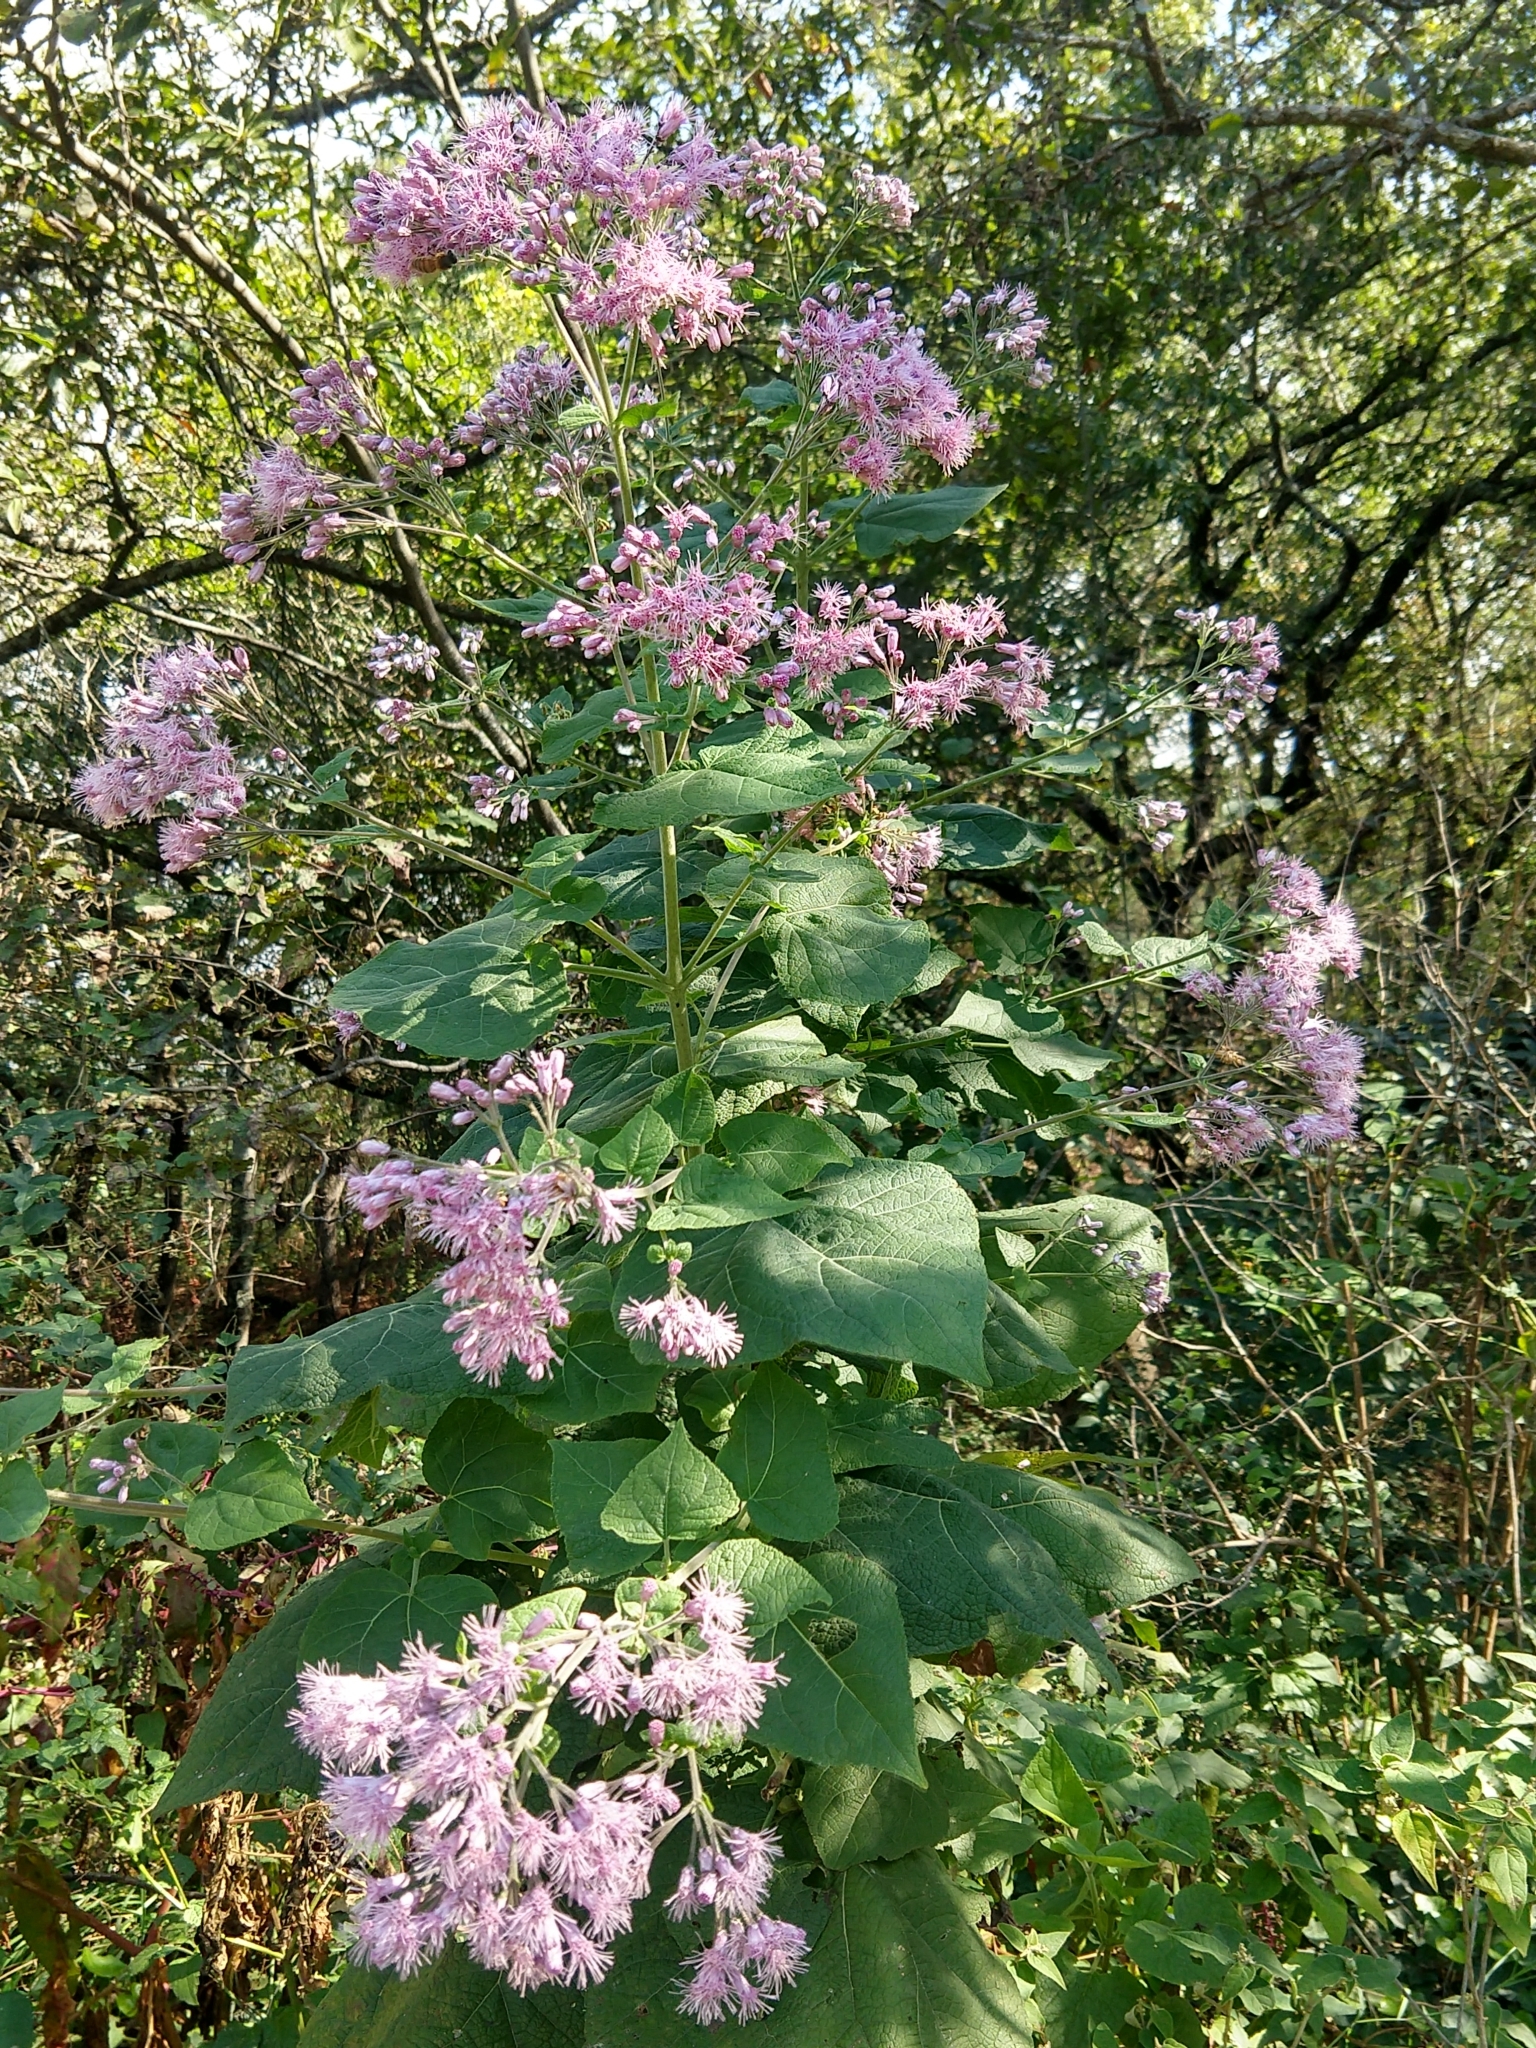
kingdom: Plantae
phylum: Tracheophyta
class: Magnoliopsida
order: Asterales
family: Asteraceae
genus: Peteravenia
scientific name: Peteravenia malvifolia
